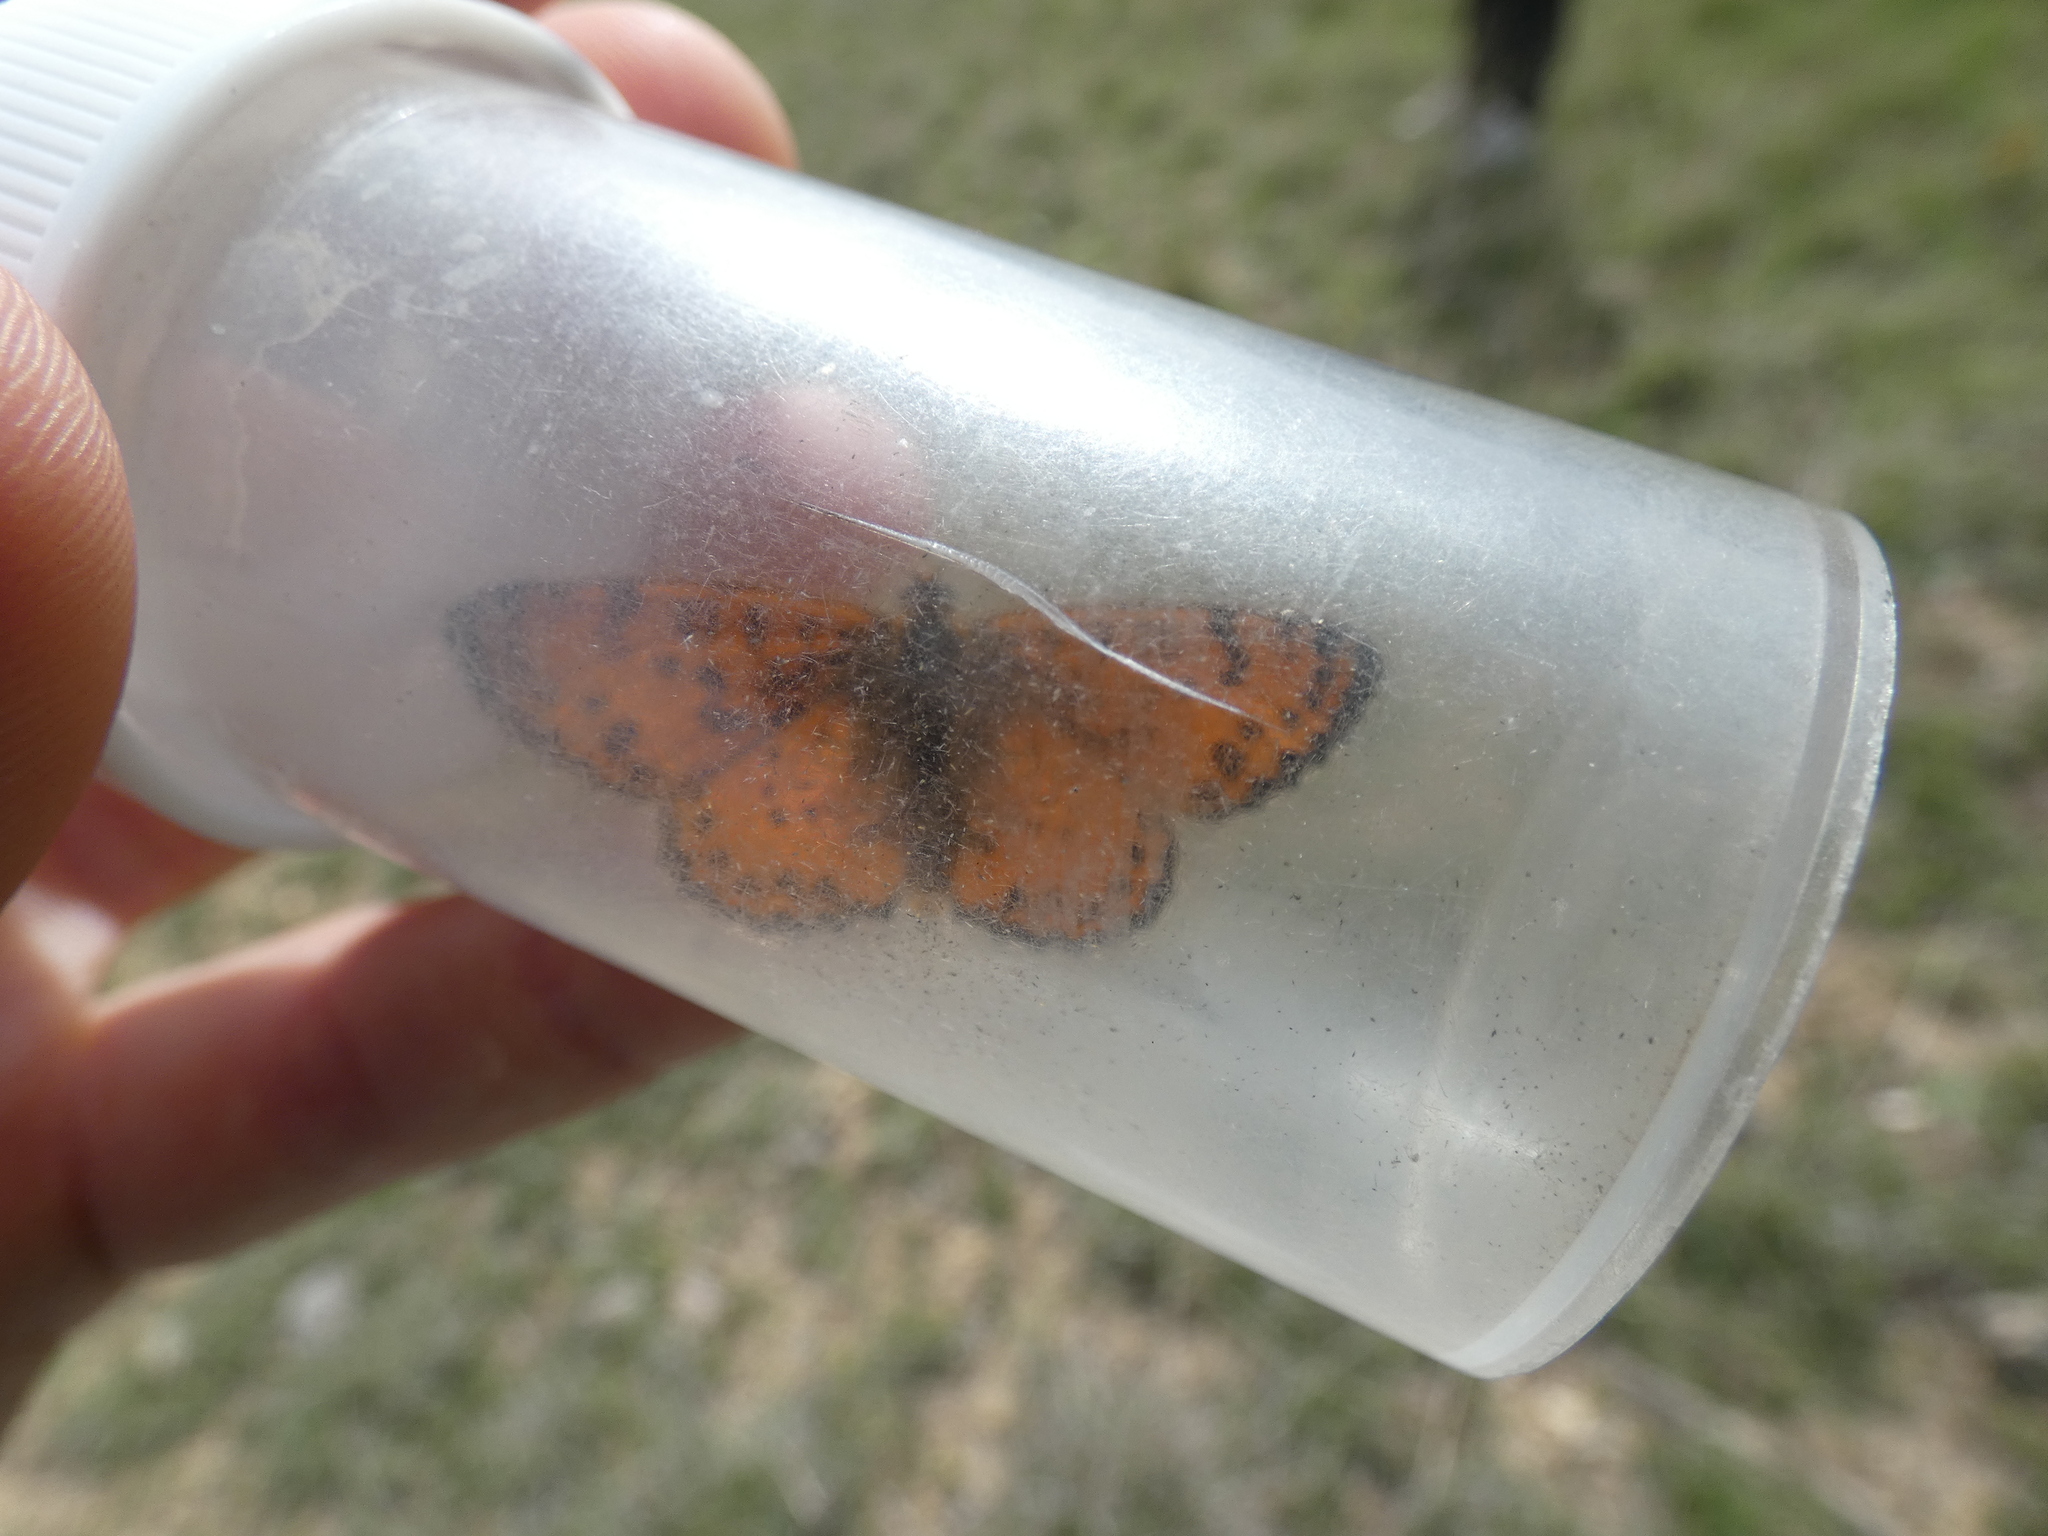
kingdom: Animalia
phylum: Arthropoda
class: Insecta
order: Lepidoptera
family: Nymphalidae
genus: Melitaea
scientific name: Melitaea didyma
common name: Spotted fritillary
